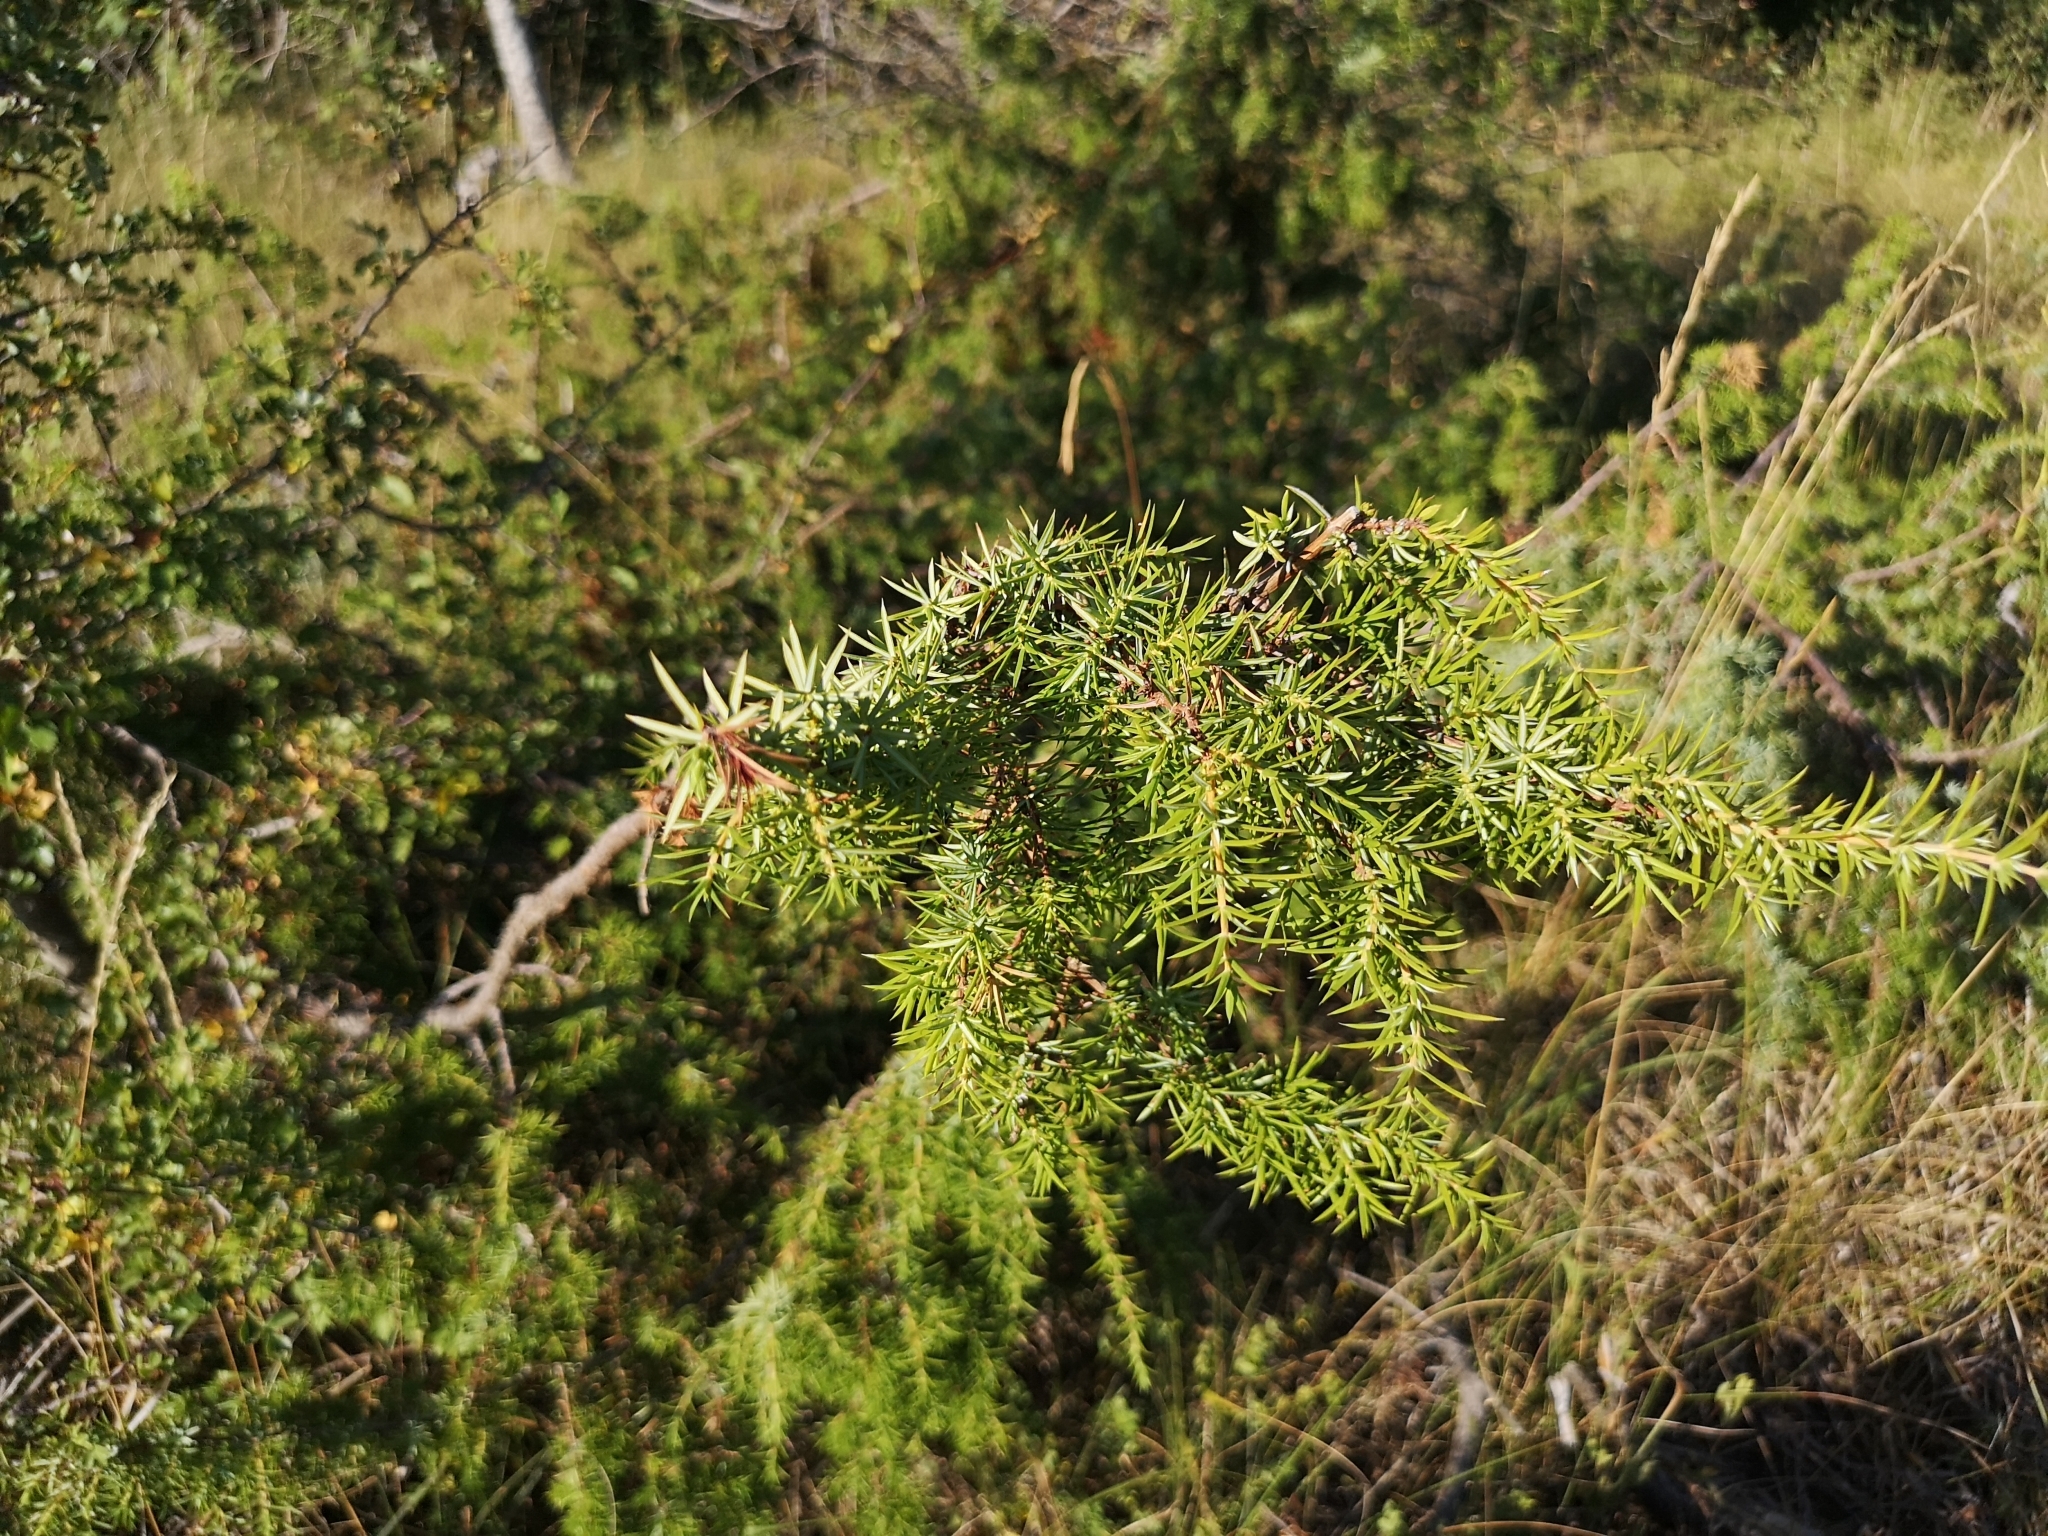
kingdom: Plantae
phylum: Tracheophyta
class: Pinopsida
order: Pinales
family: Cupressaceae
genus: Juniperus
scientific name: Juniperus communis
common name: Common juniper
